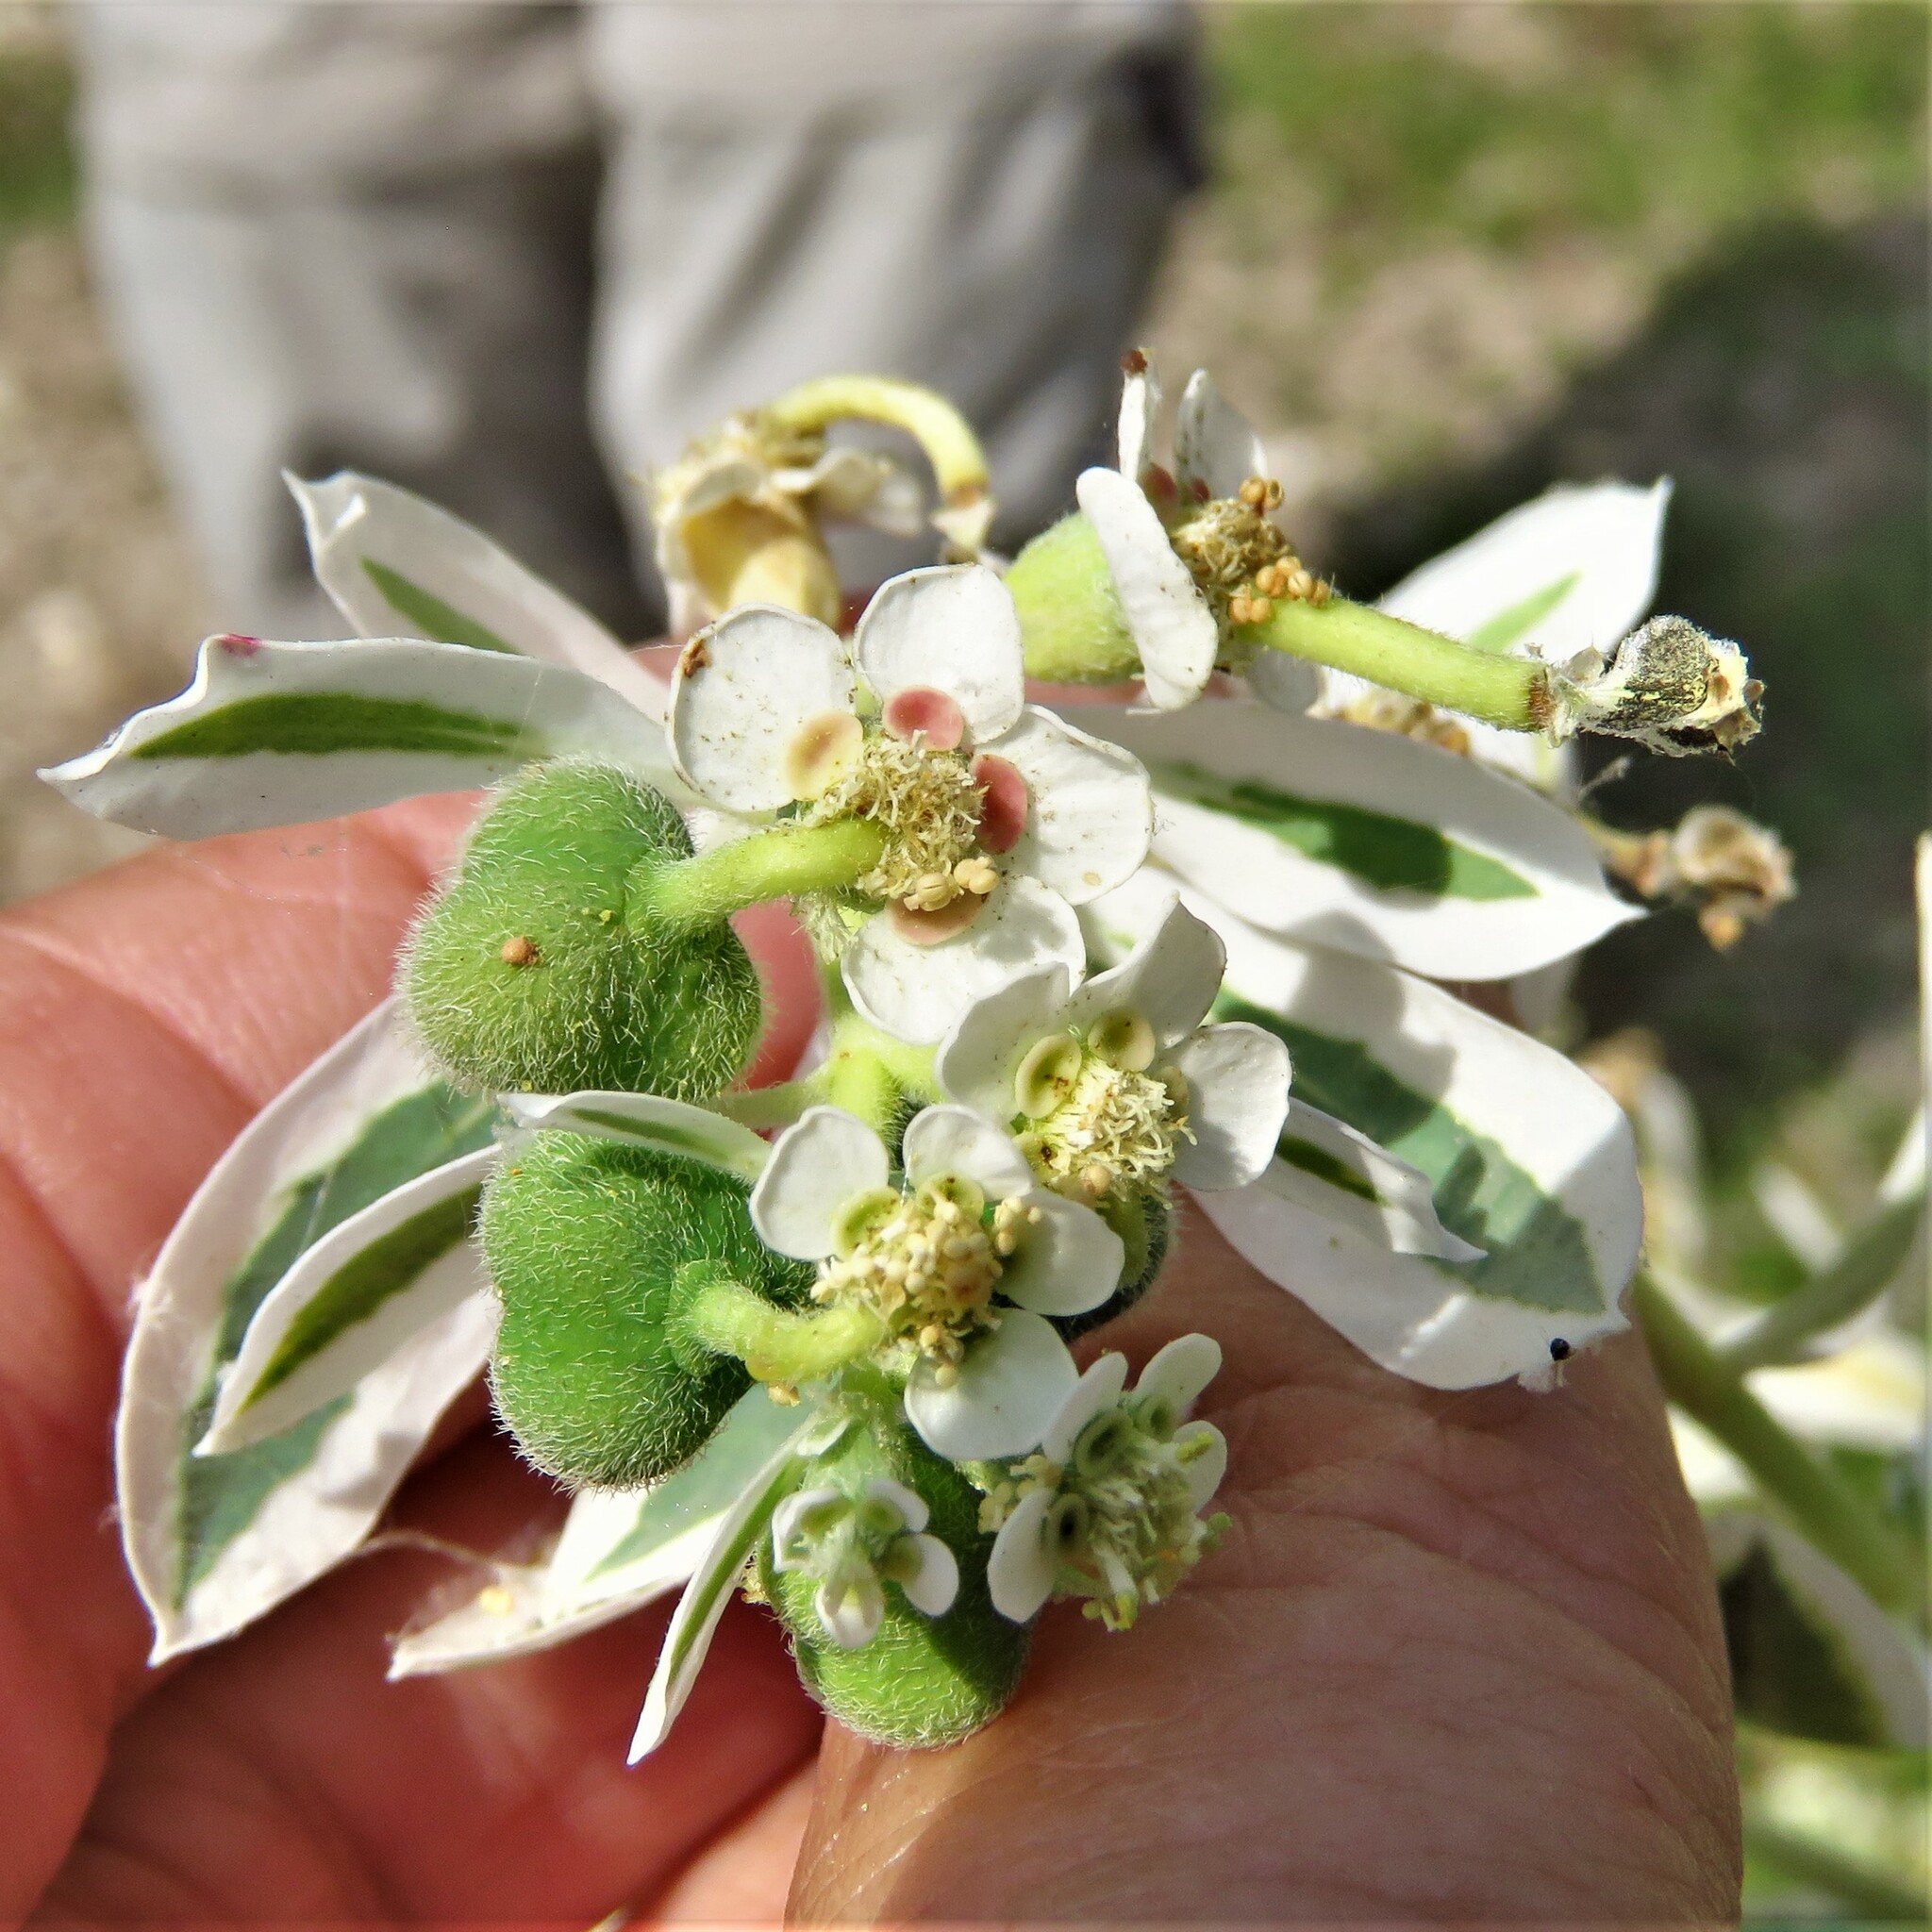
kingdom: Plantae
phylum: Tracheophyta
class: Magnoliopsida
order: Malpighiales
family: Euphorbiaceae
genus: Euphorbia
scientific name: Euphorbia marginata
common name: Ghostweed
